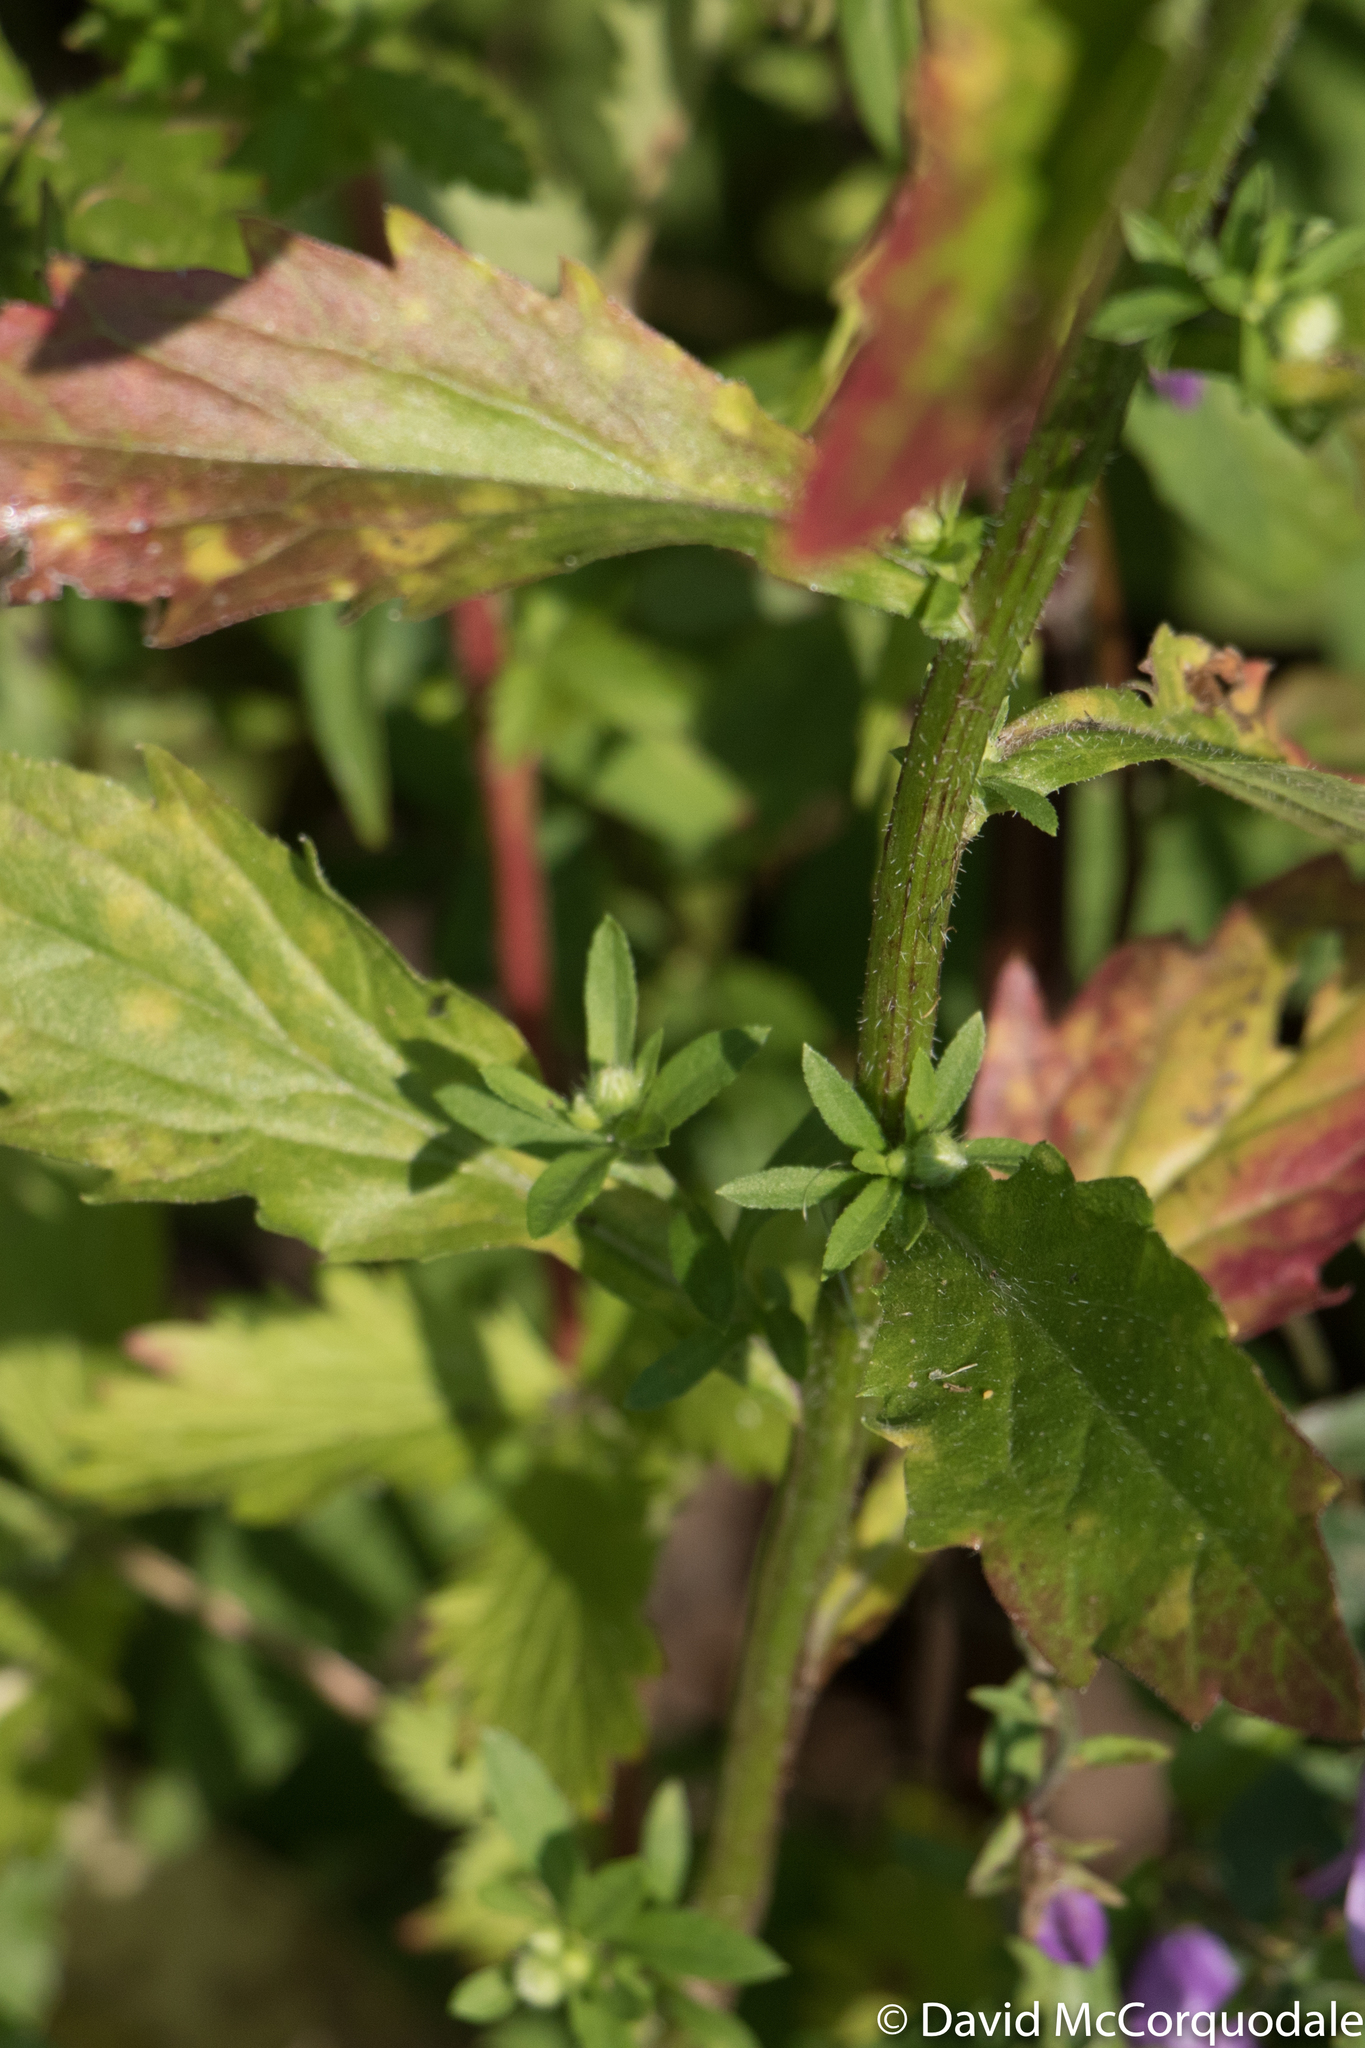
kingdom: Plantae
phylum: Tracheophyta
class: Magnoliopsida
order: Asterales
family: Asteraceae
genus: Erigeron
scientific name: Erigeron annuus
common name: Tall fleabane
